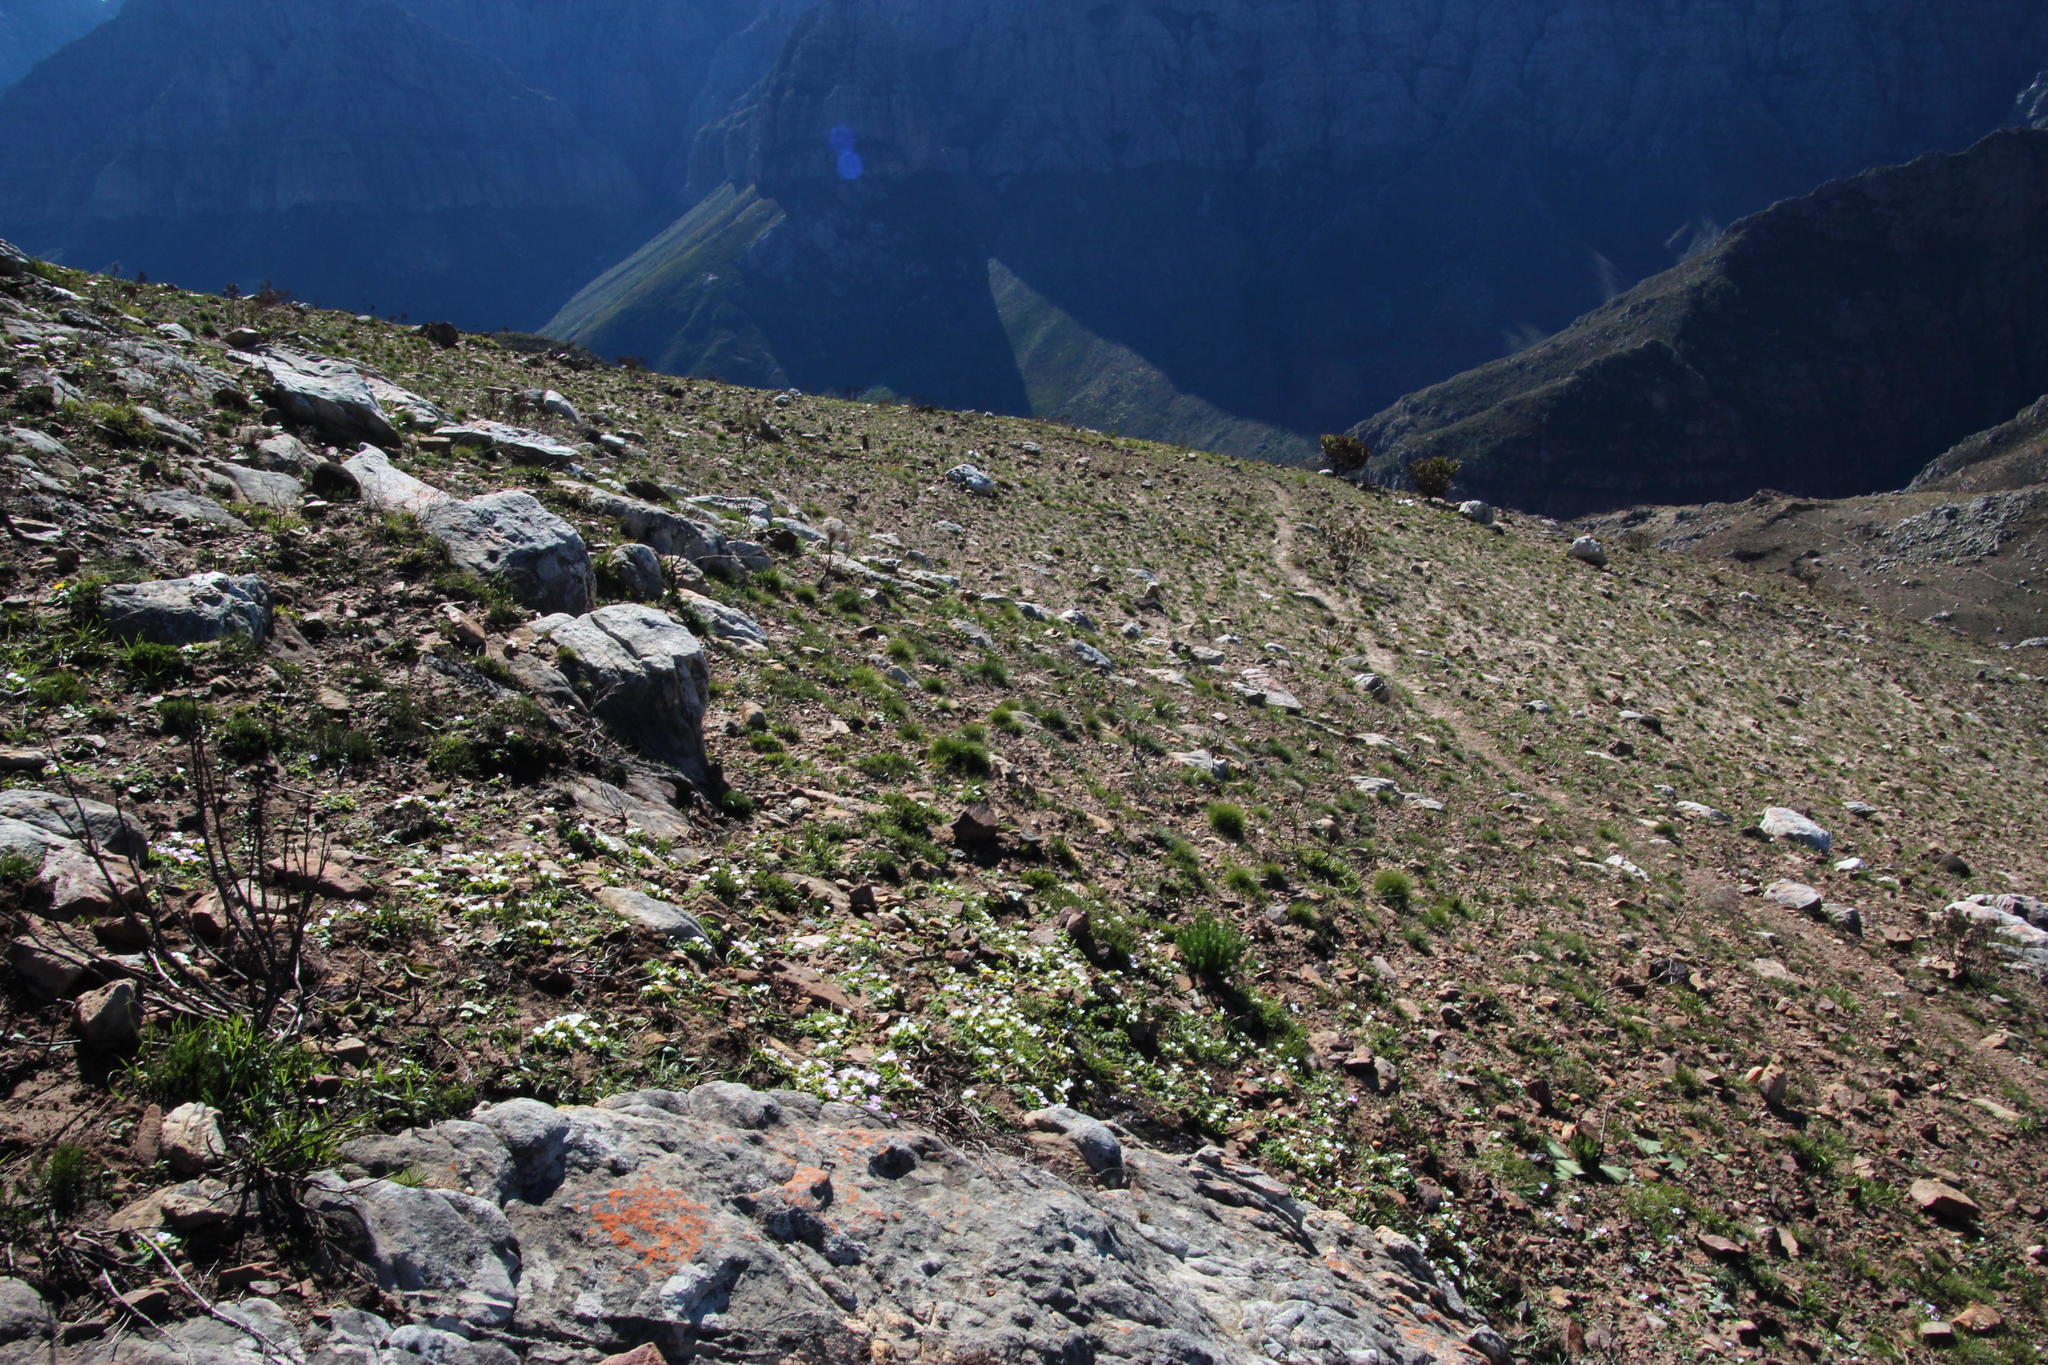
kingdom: Plantae
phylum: Tracheophyta
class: Magnoliopsida
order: Oxalidales
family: Oxalidaceae
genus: Oxalis
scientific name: Oxalis purpurea
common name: Purple woodsorrel
